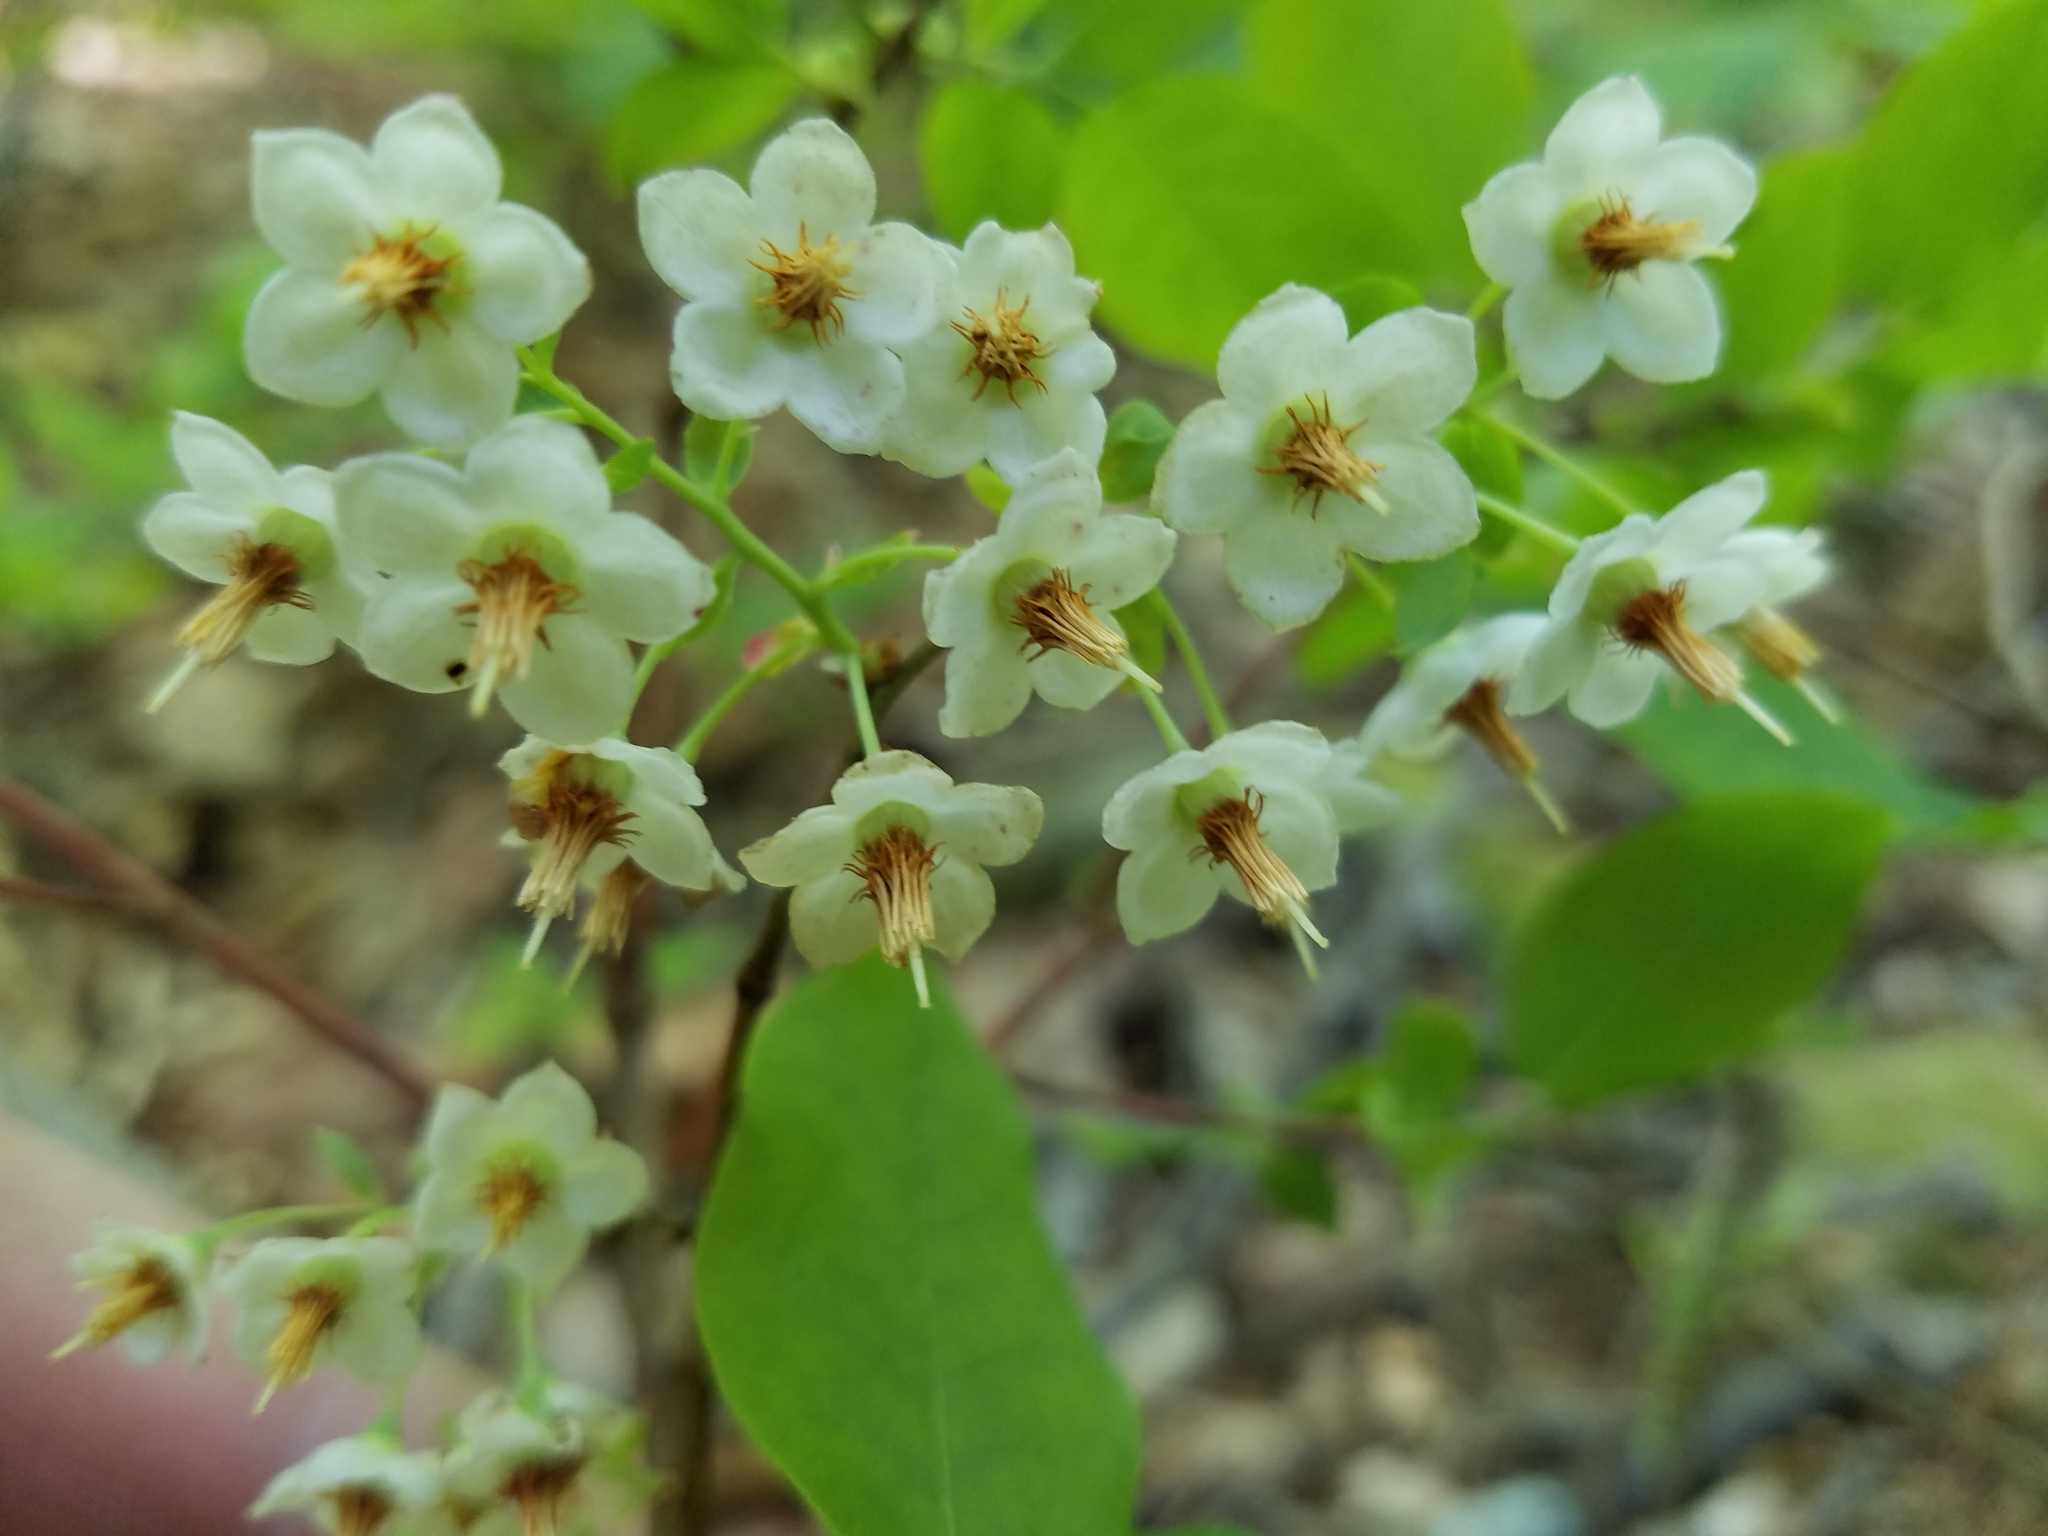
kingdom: Plantae
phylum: Tracheophyta
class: Magnoliopsida
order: Ericales
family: Ericaceae
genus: Vaccinium
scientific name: Vaccinium stamineum
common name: Deerberry
